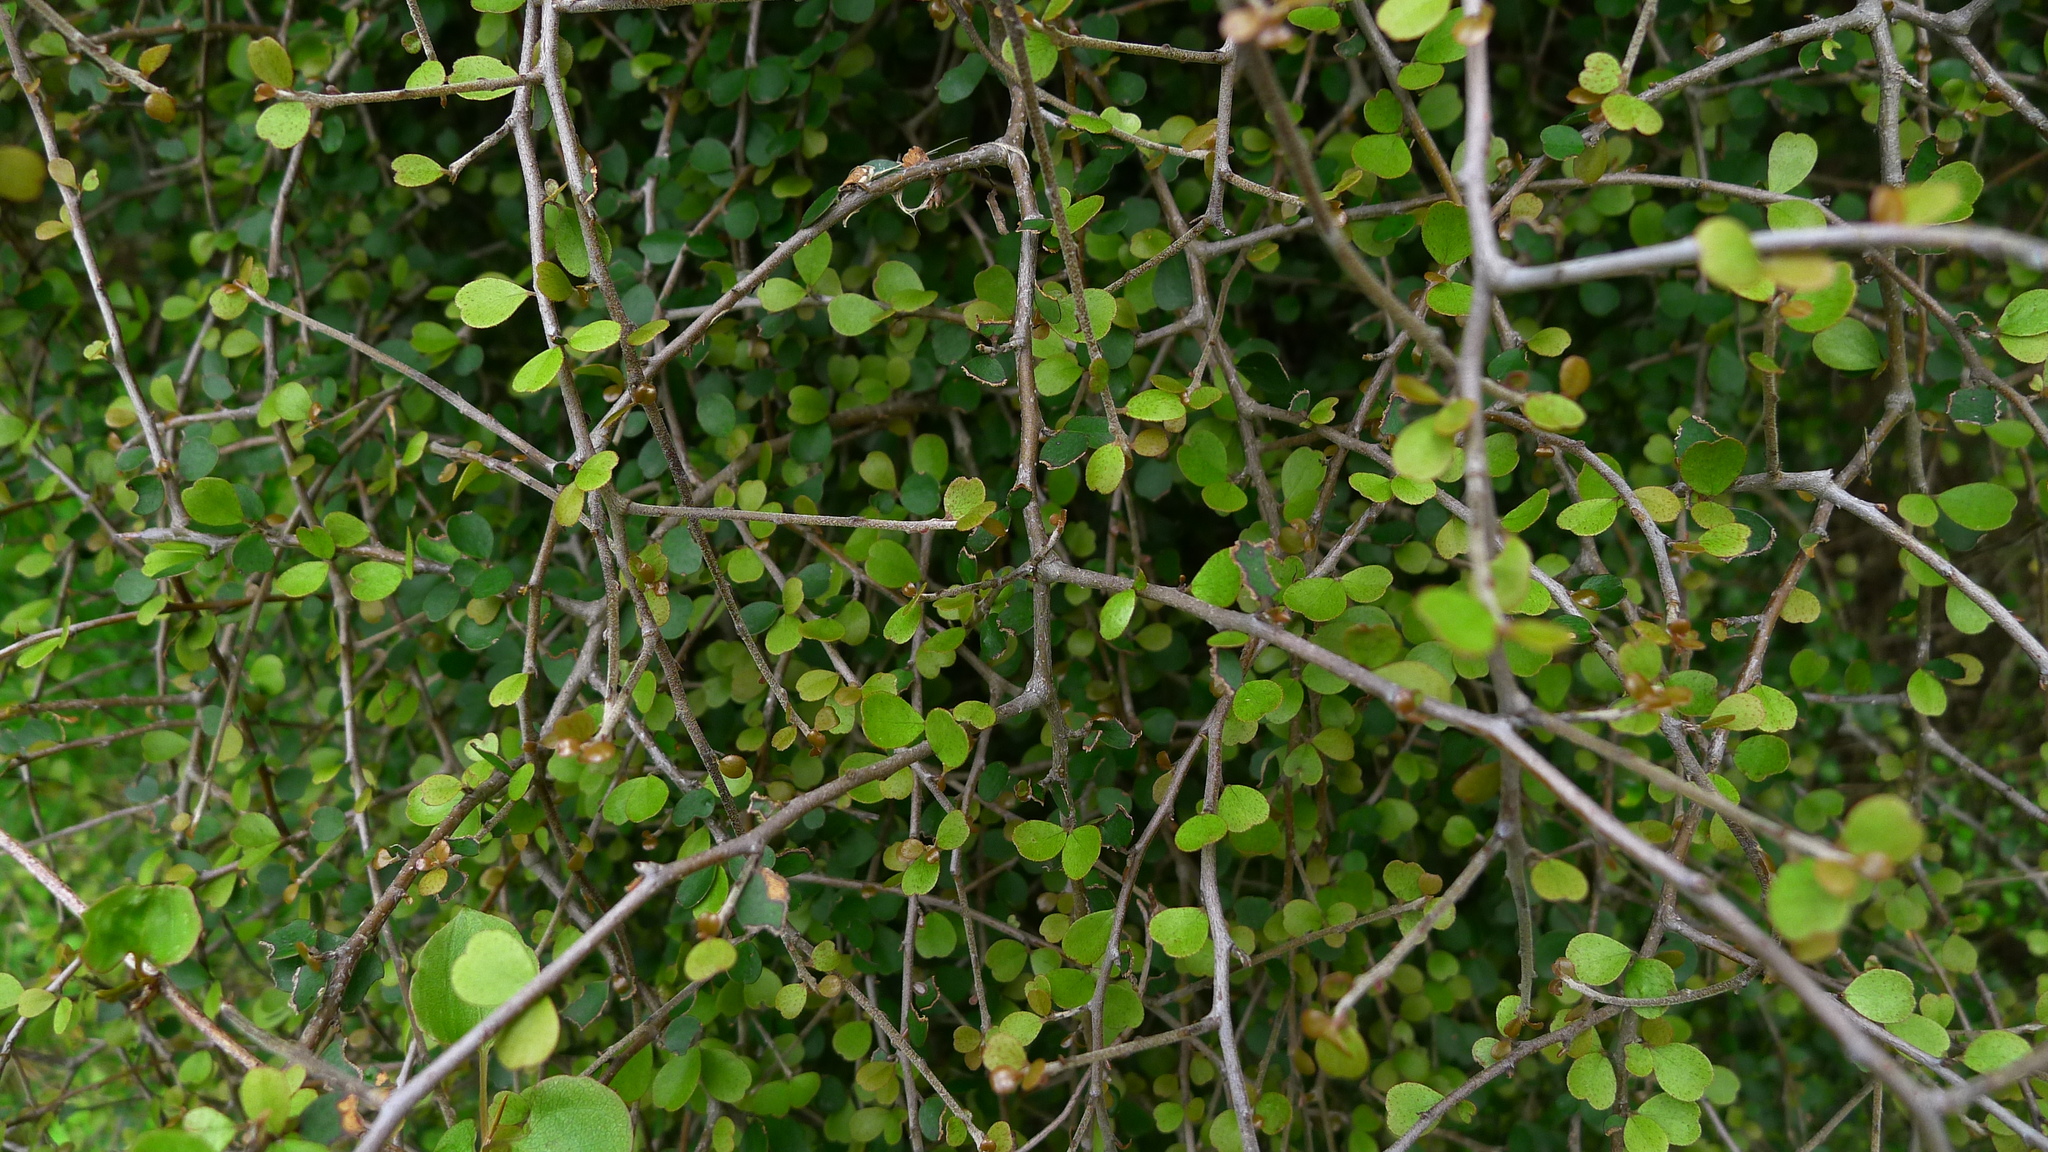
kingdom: Plantae
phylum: Tracheophyta
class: Magnoliopsida
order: Ericales
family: Primulaceae
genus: Myrsine
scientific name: Myrsine divaricata
